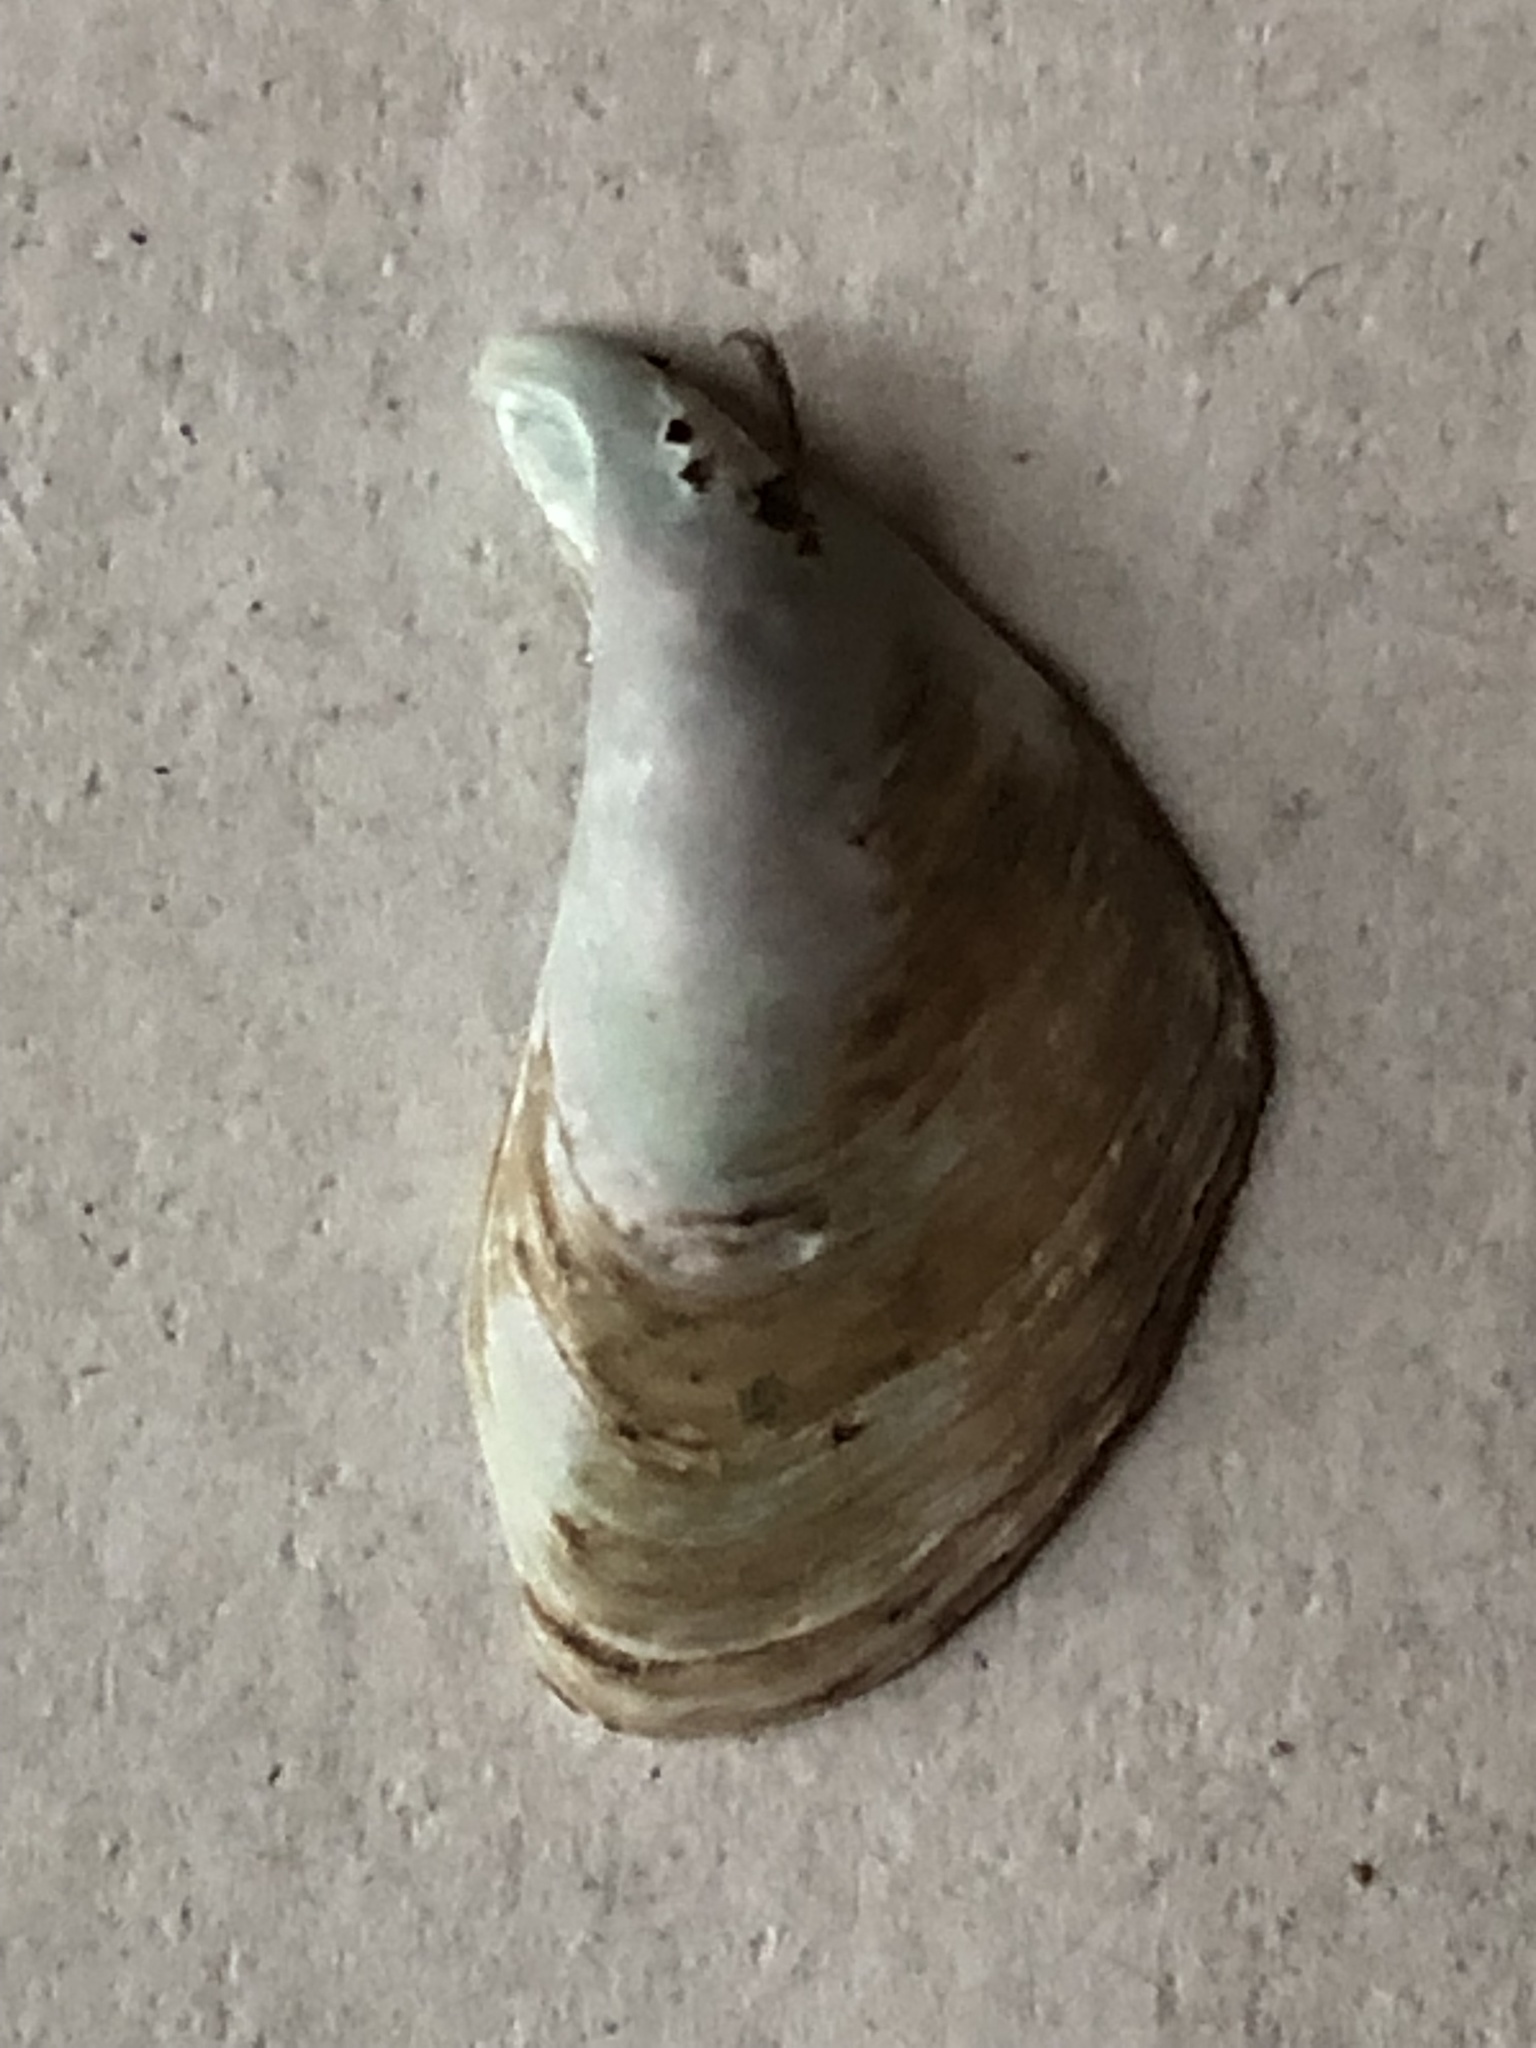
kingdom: Animalia
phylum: Mollusca
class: Bivalvia
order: Myida
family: Dreissenidae
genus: Dreissena
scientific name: Dreissena bugensis
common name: Quagga mussel
